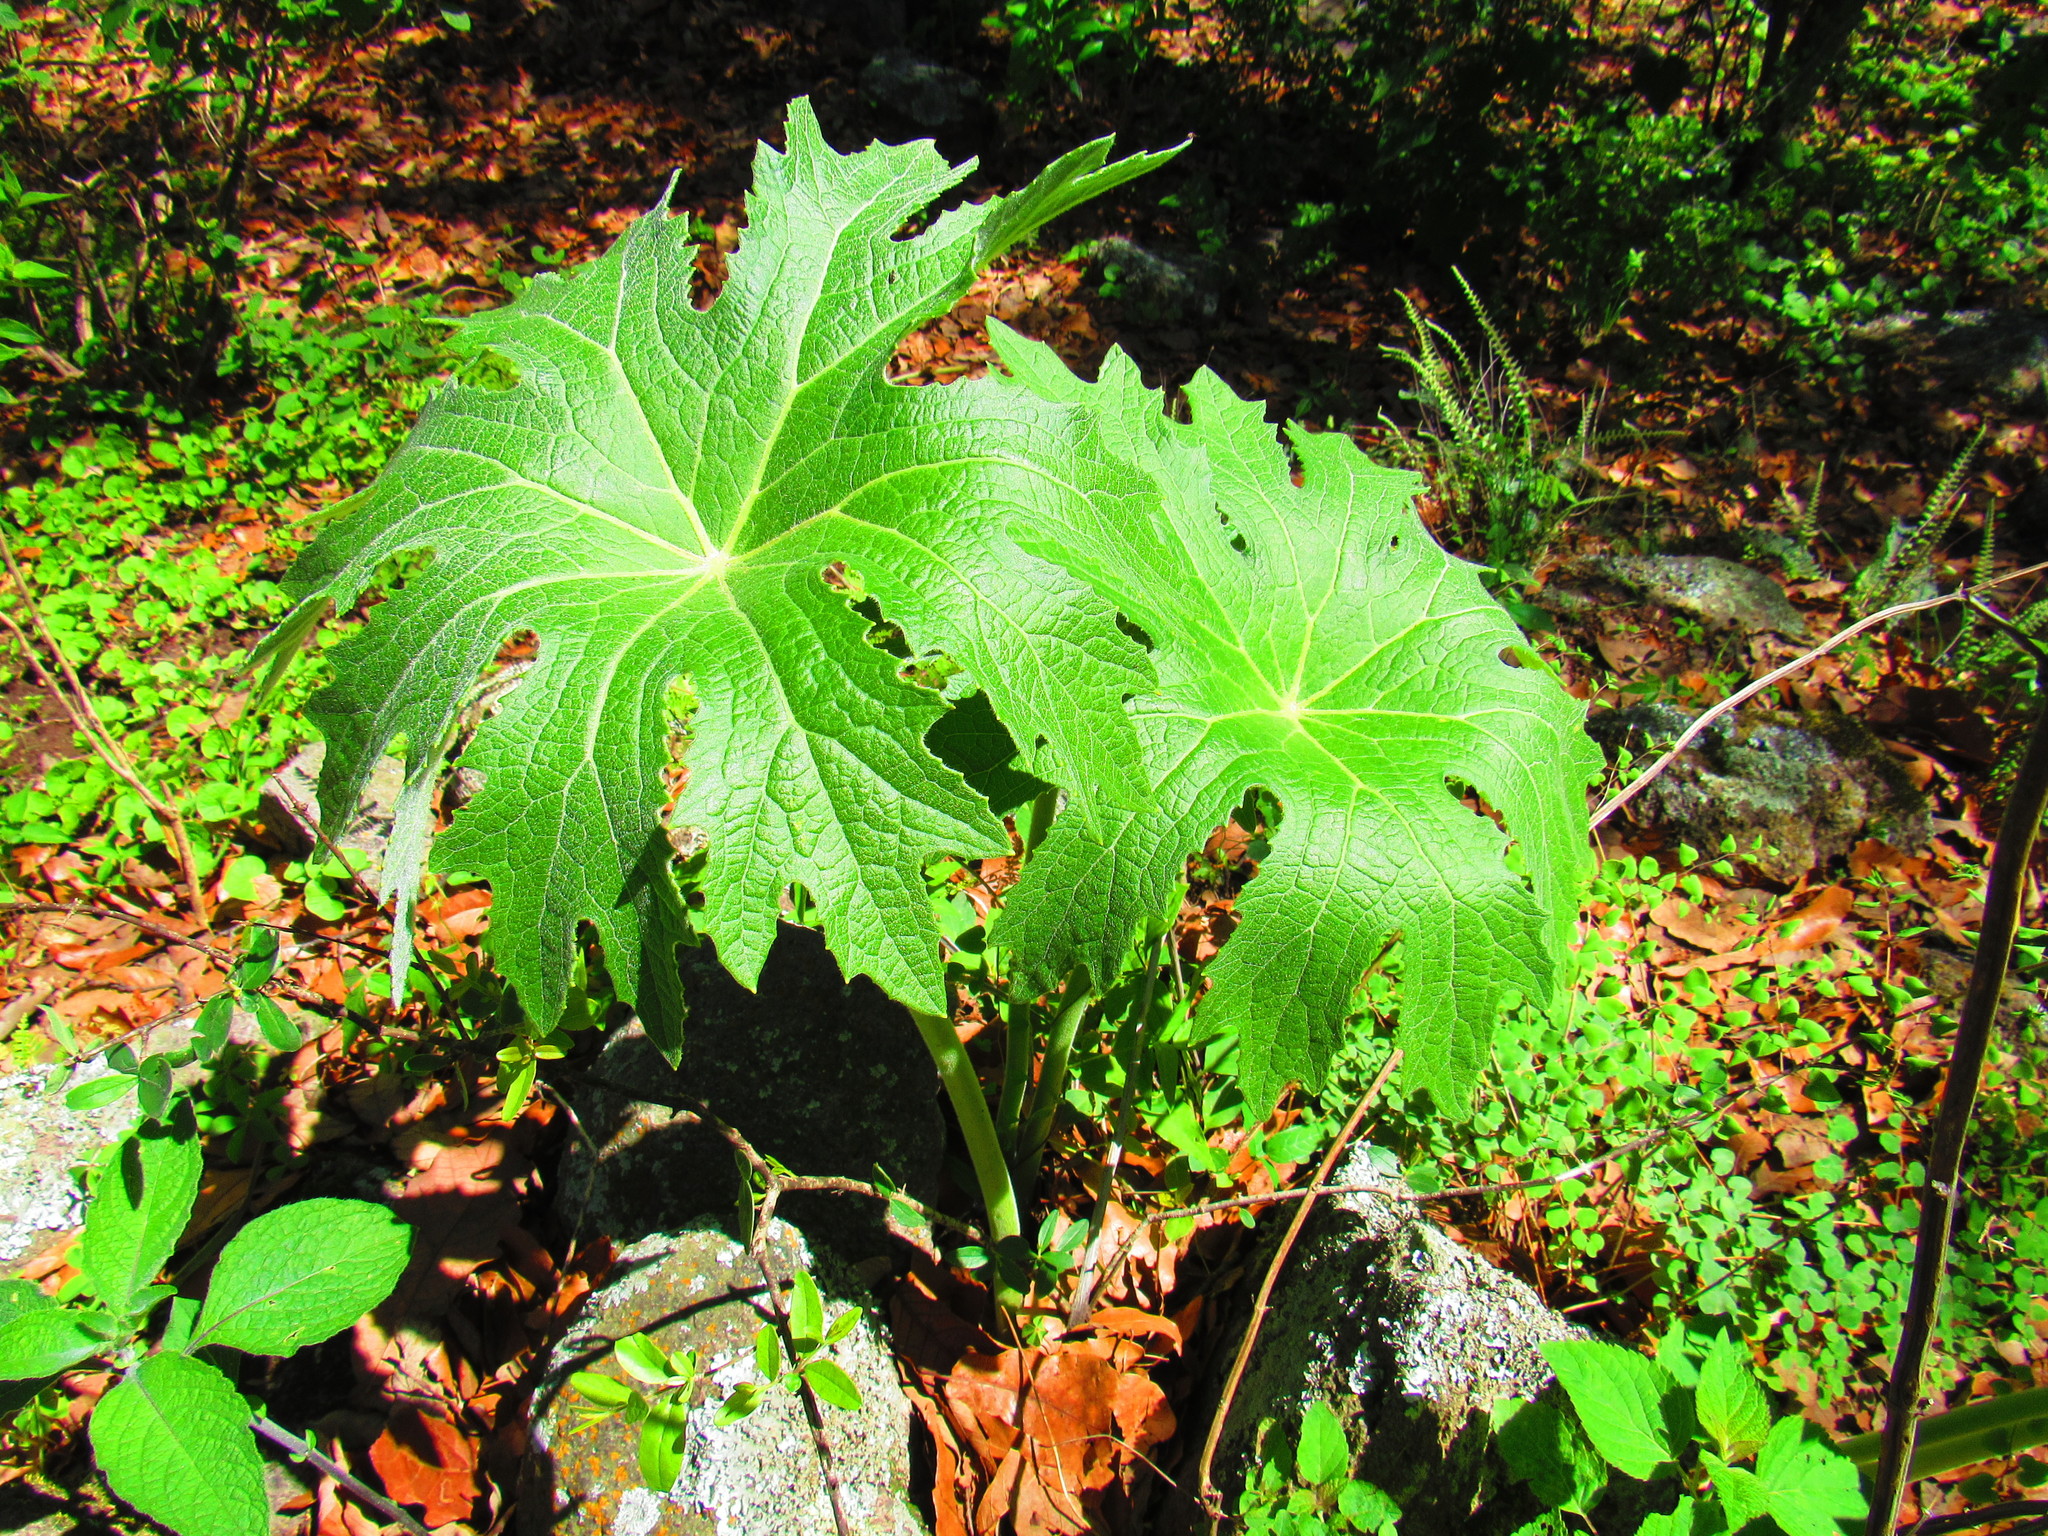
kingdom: Plantae
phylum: Tracheophyta
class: Magnoliopsida
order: Asterales
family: Asteraceae
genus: Psacalium
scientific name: Psacalium megaphyllum
